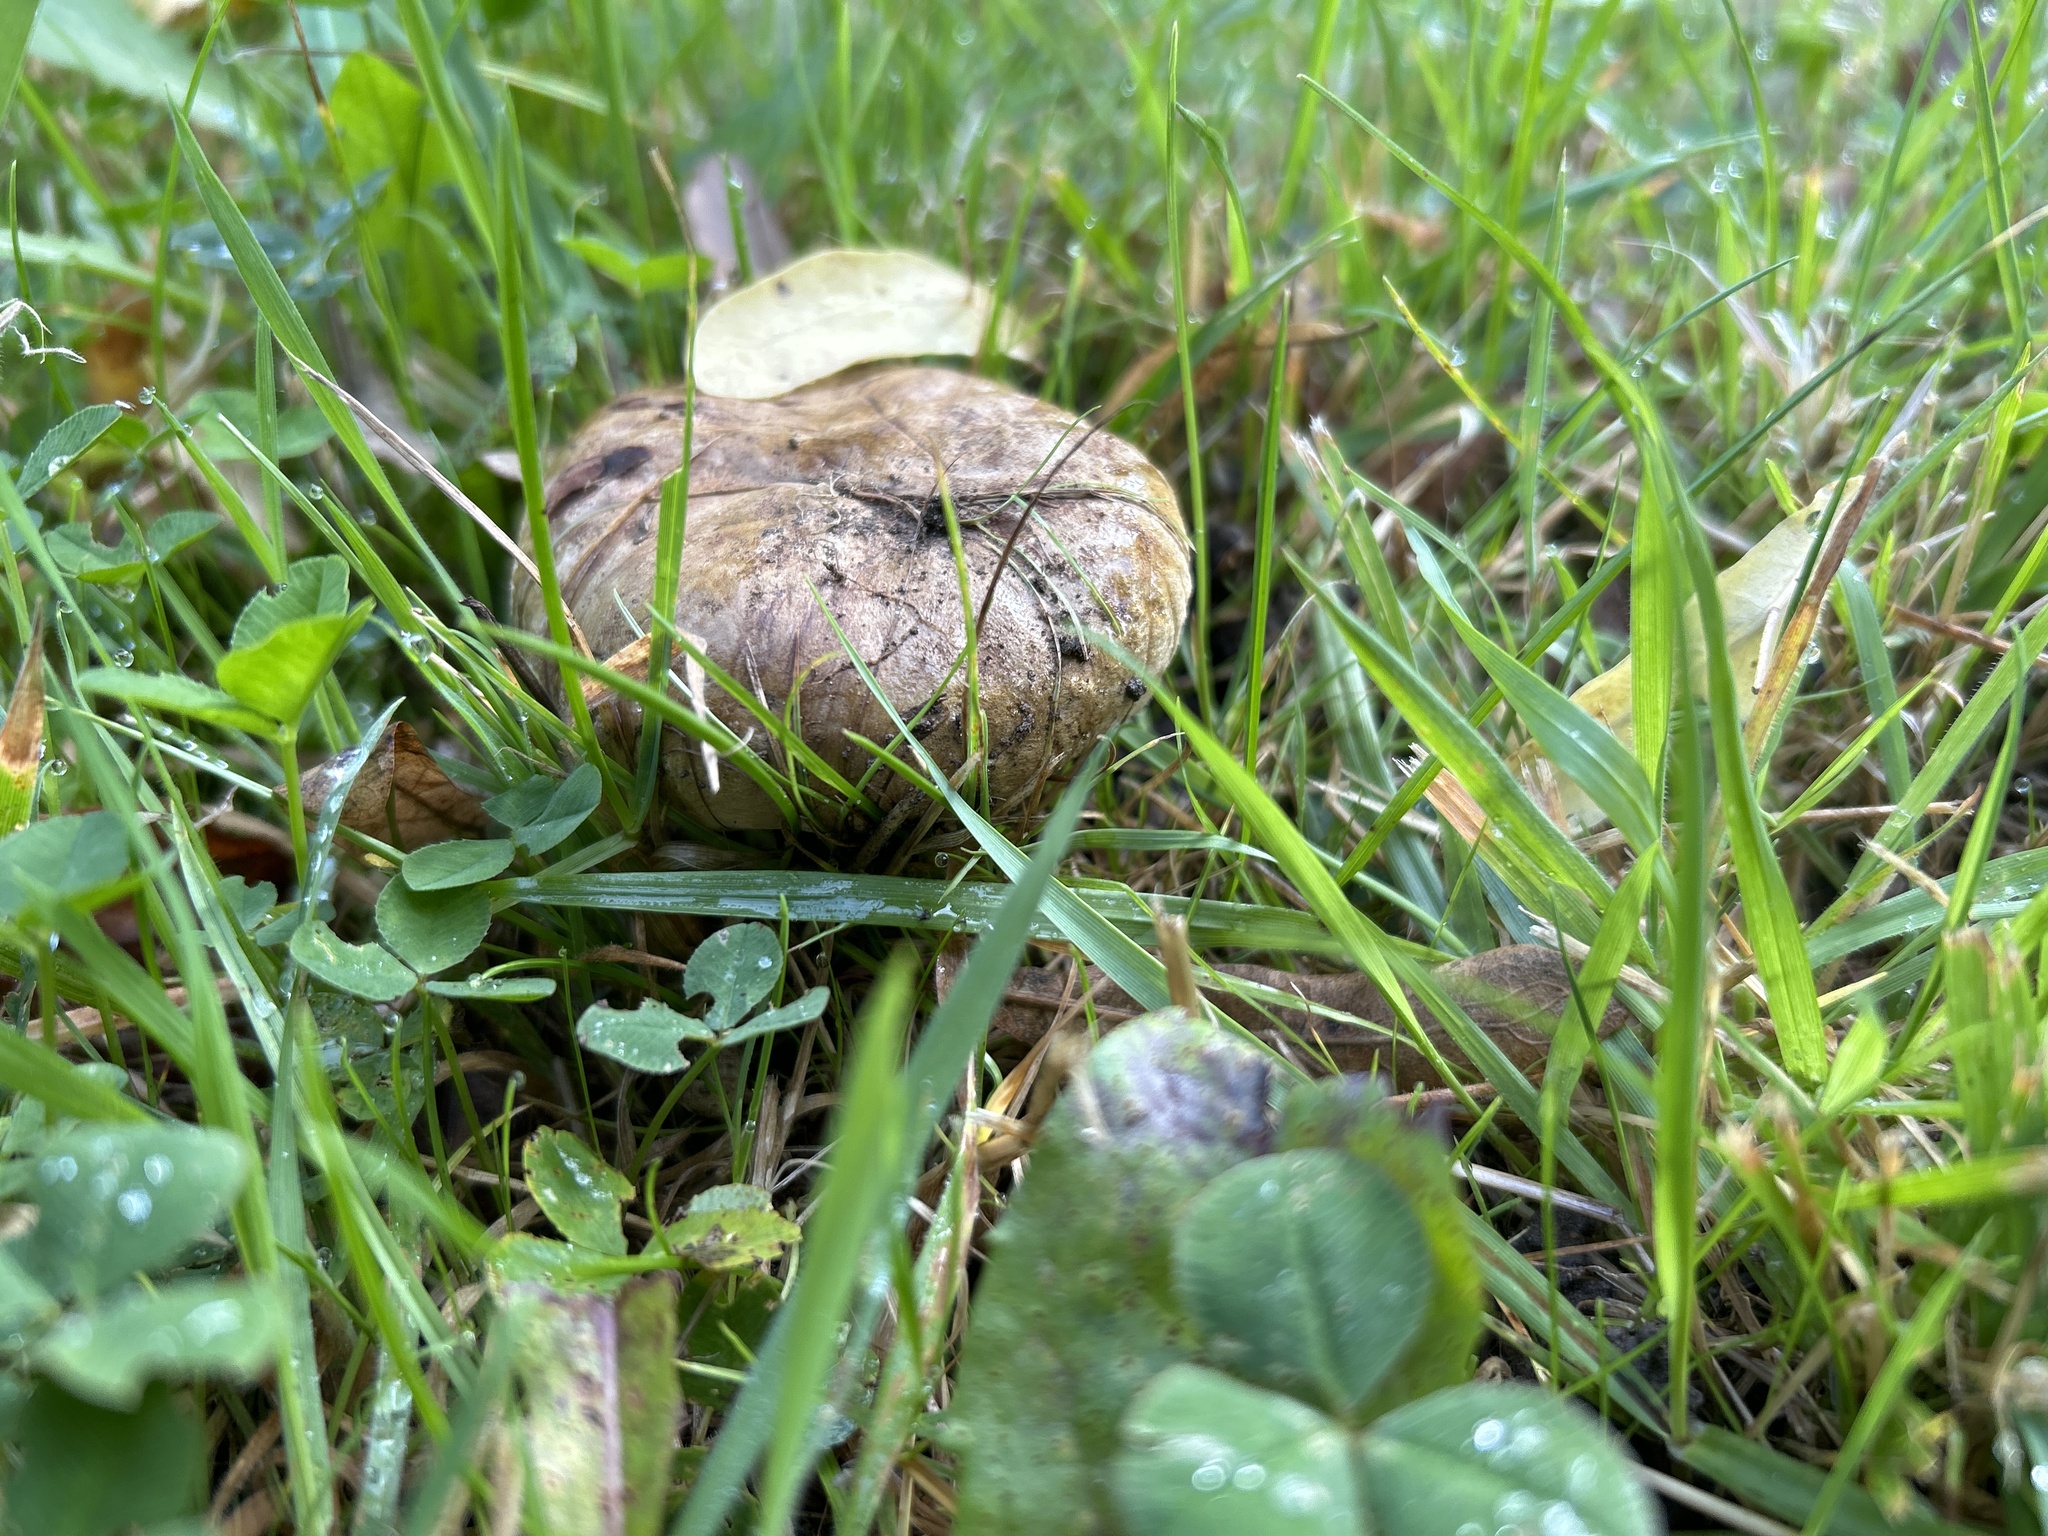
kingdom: Fungi
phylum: Basidiomycota
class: Agaricomycetes
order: Boletales
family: Paxillaceae
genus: Paxillus
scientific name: Paxillus involutus
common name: Brown roll rim
